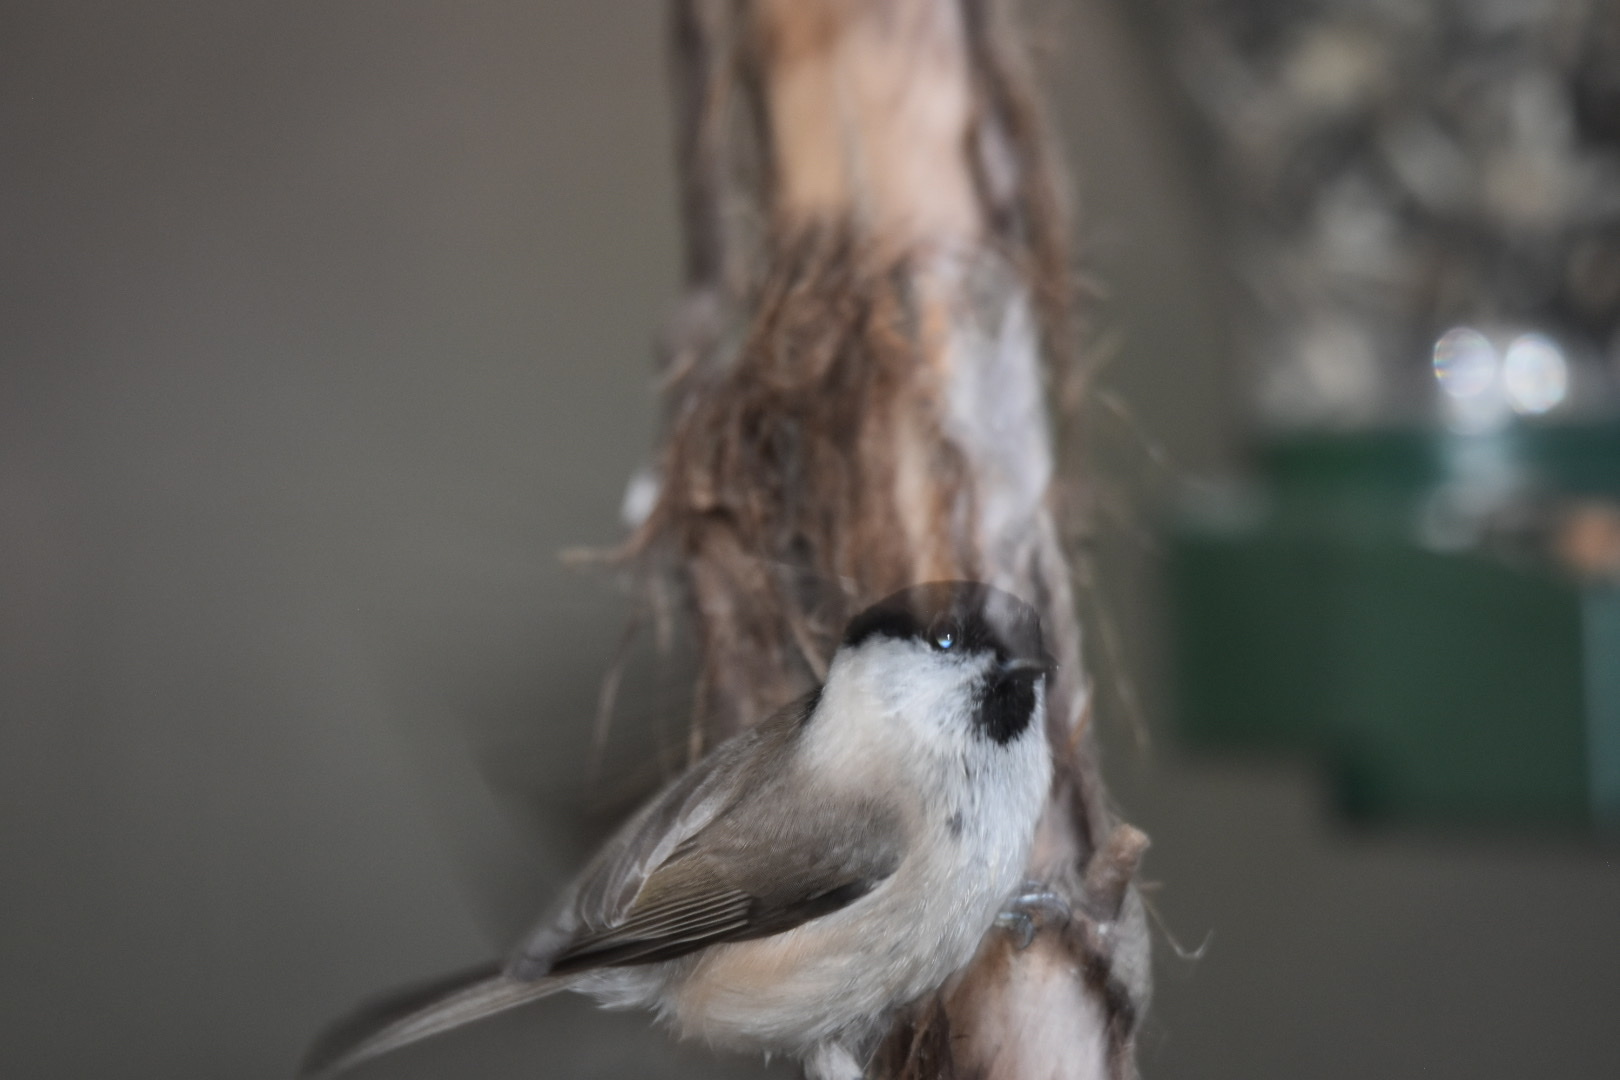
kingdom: Animalia
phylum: Chordata
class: Aves
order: Passeriformes
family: Paridae
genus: Poecile
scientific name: Poecile palustris
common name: Marsh tit
